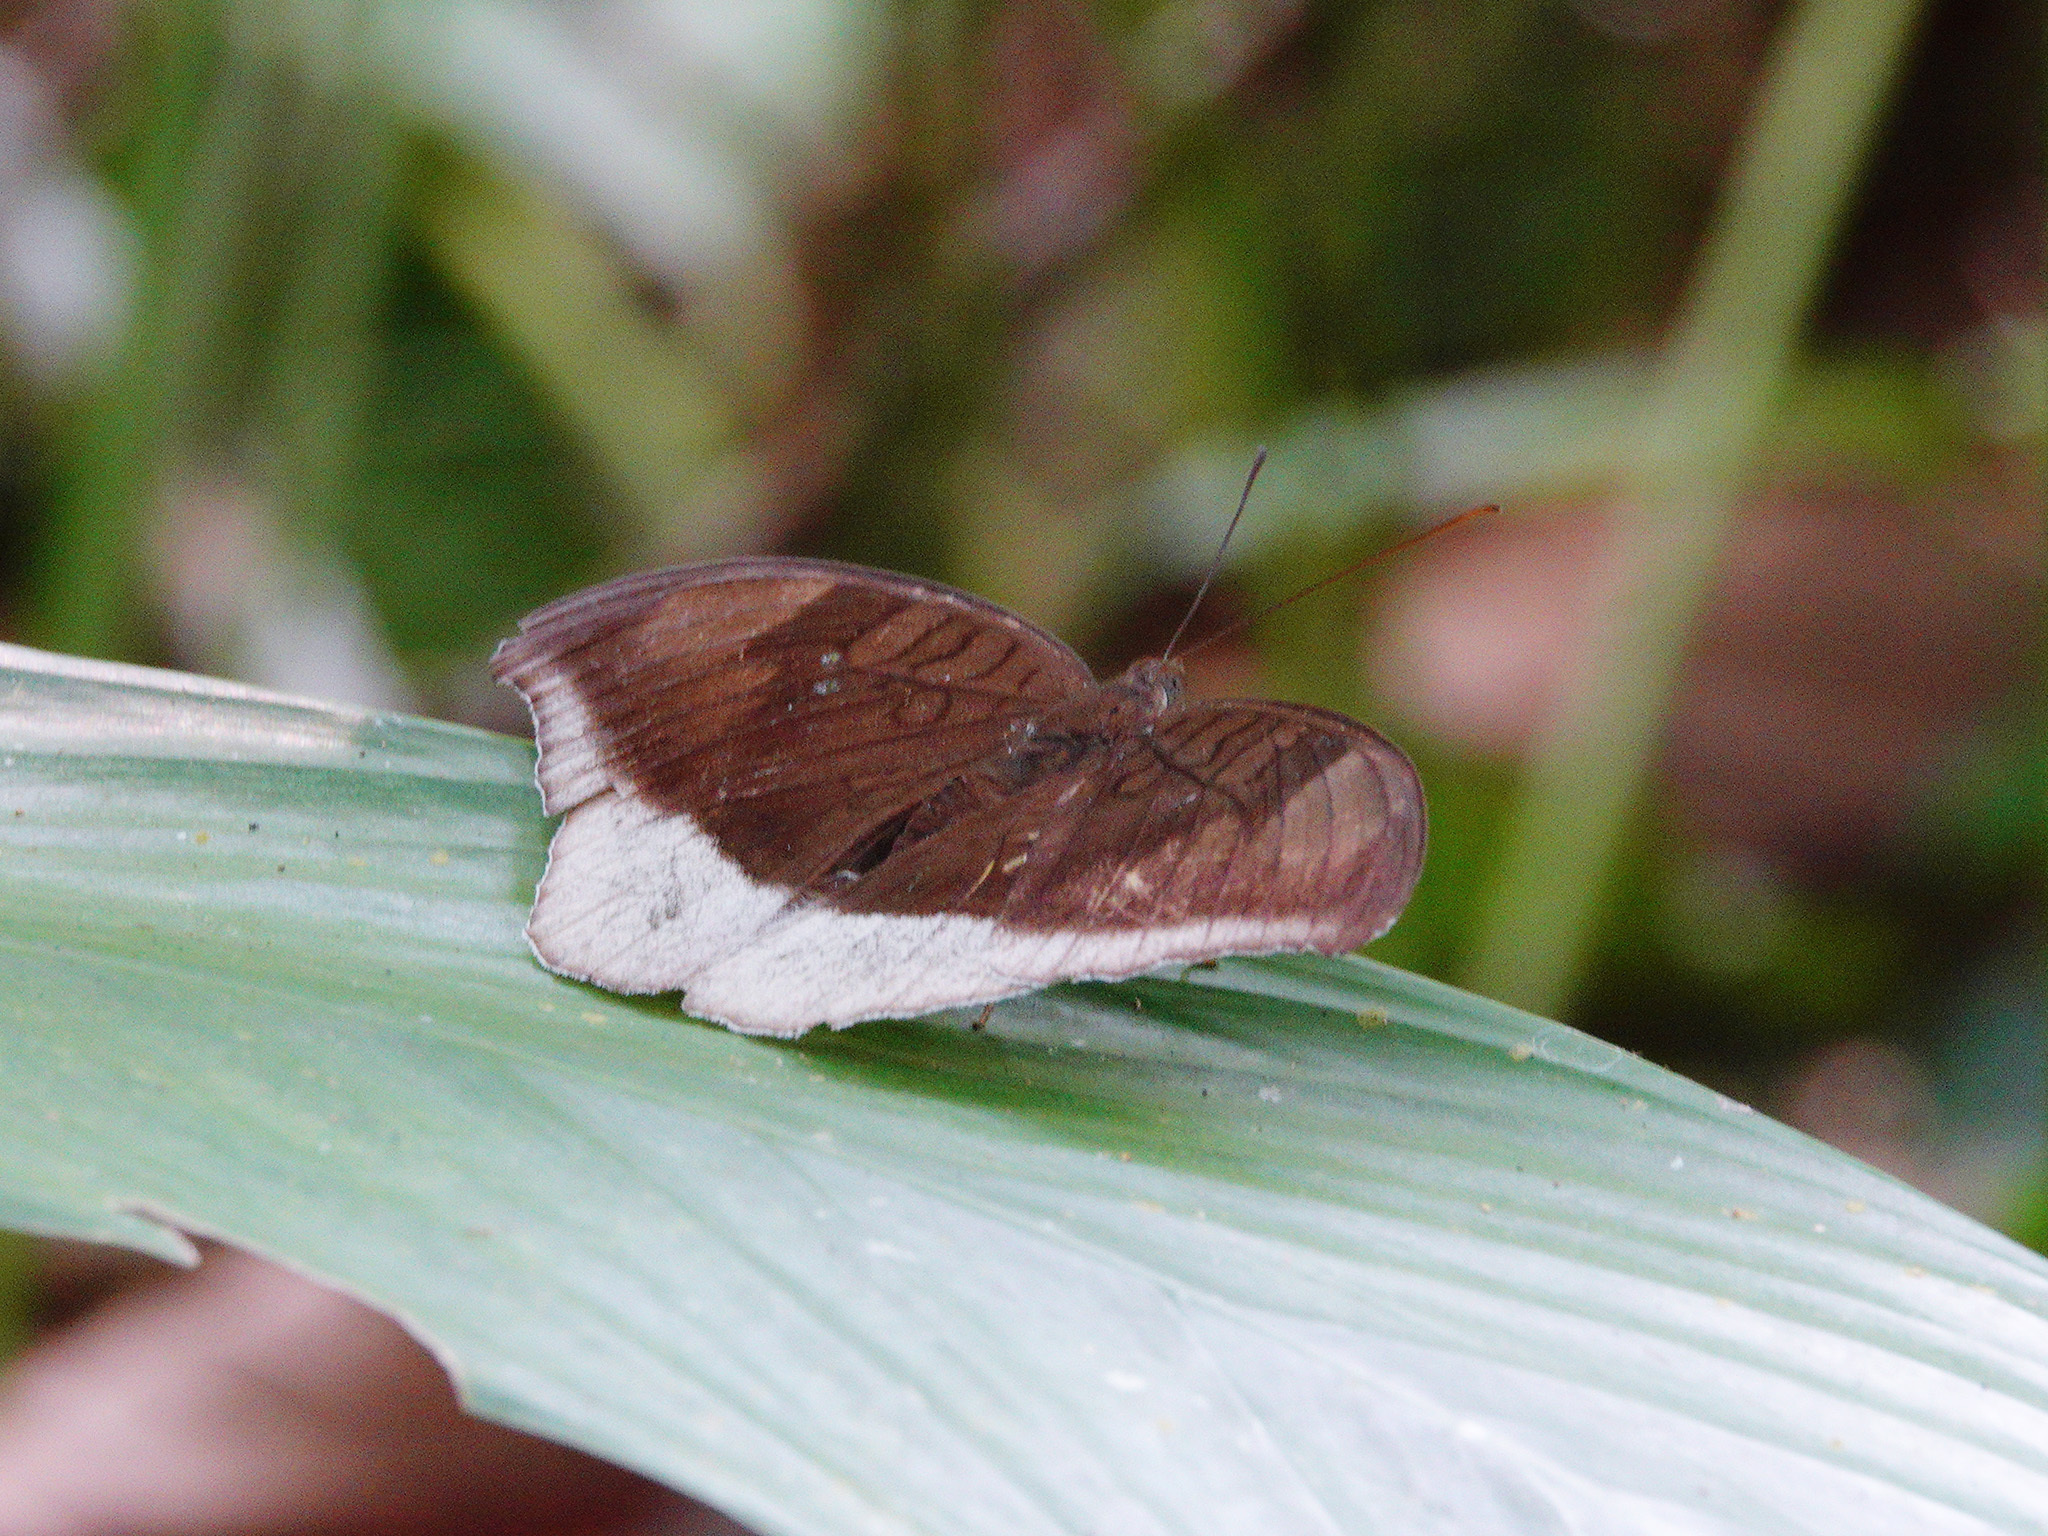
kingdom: Animalia
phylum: Arthropoda
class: Insecta
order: Lepidoptera
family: Nymphalidae
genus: Tanaecia
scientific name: Tanaecia lepidea
